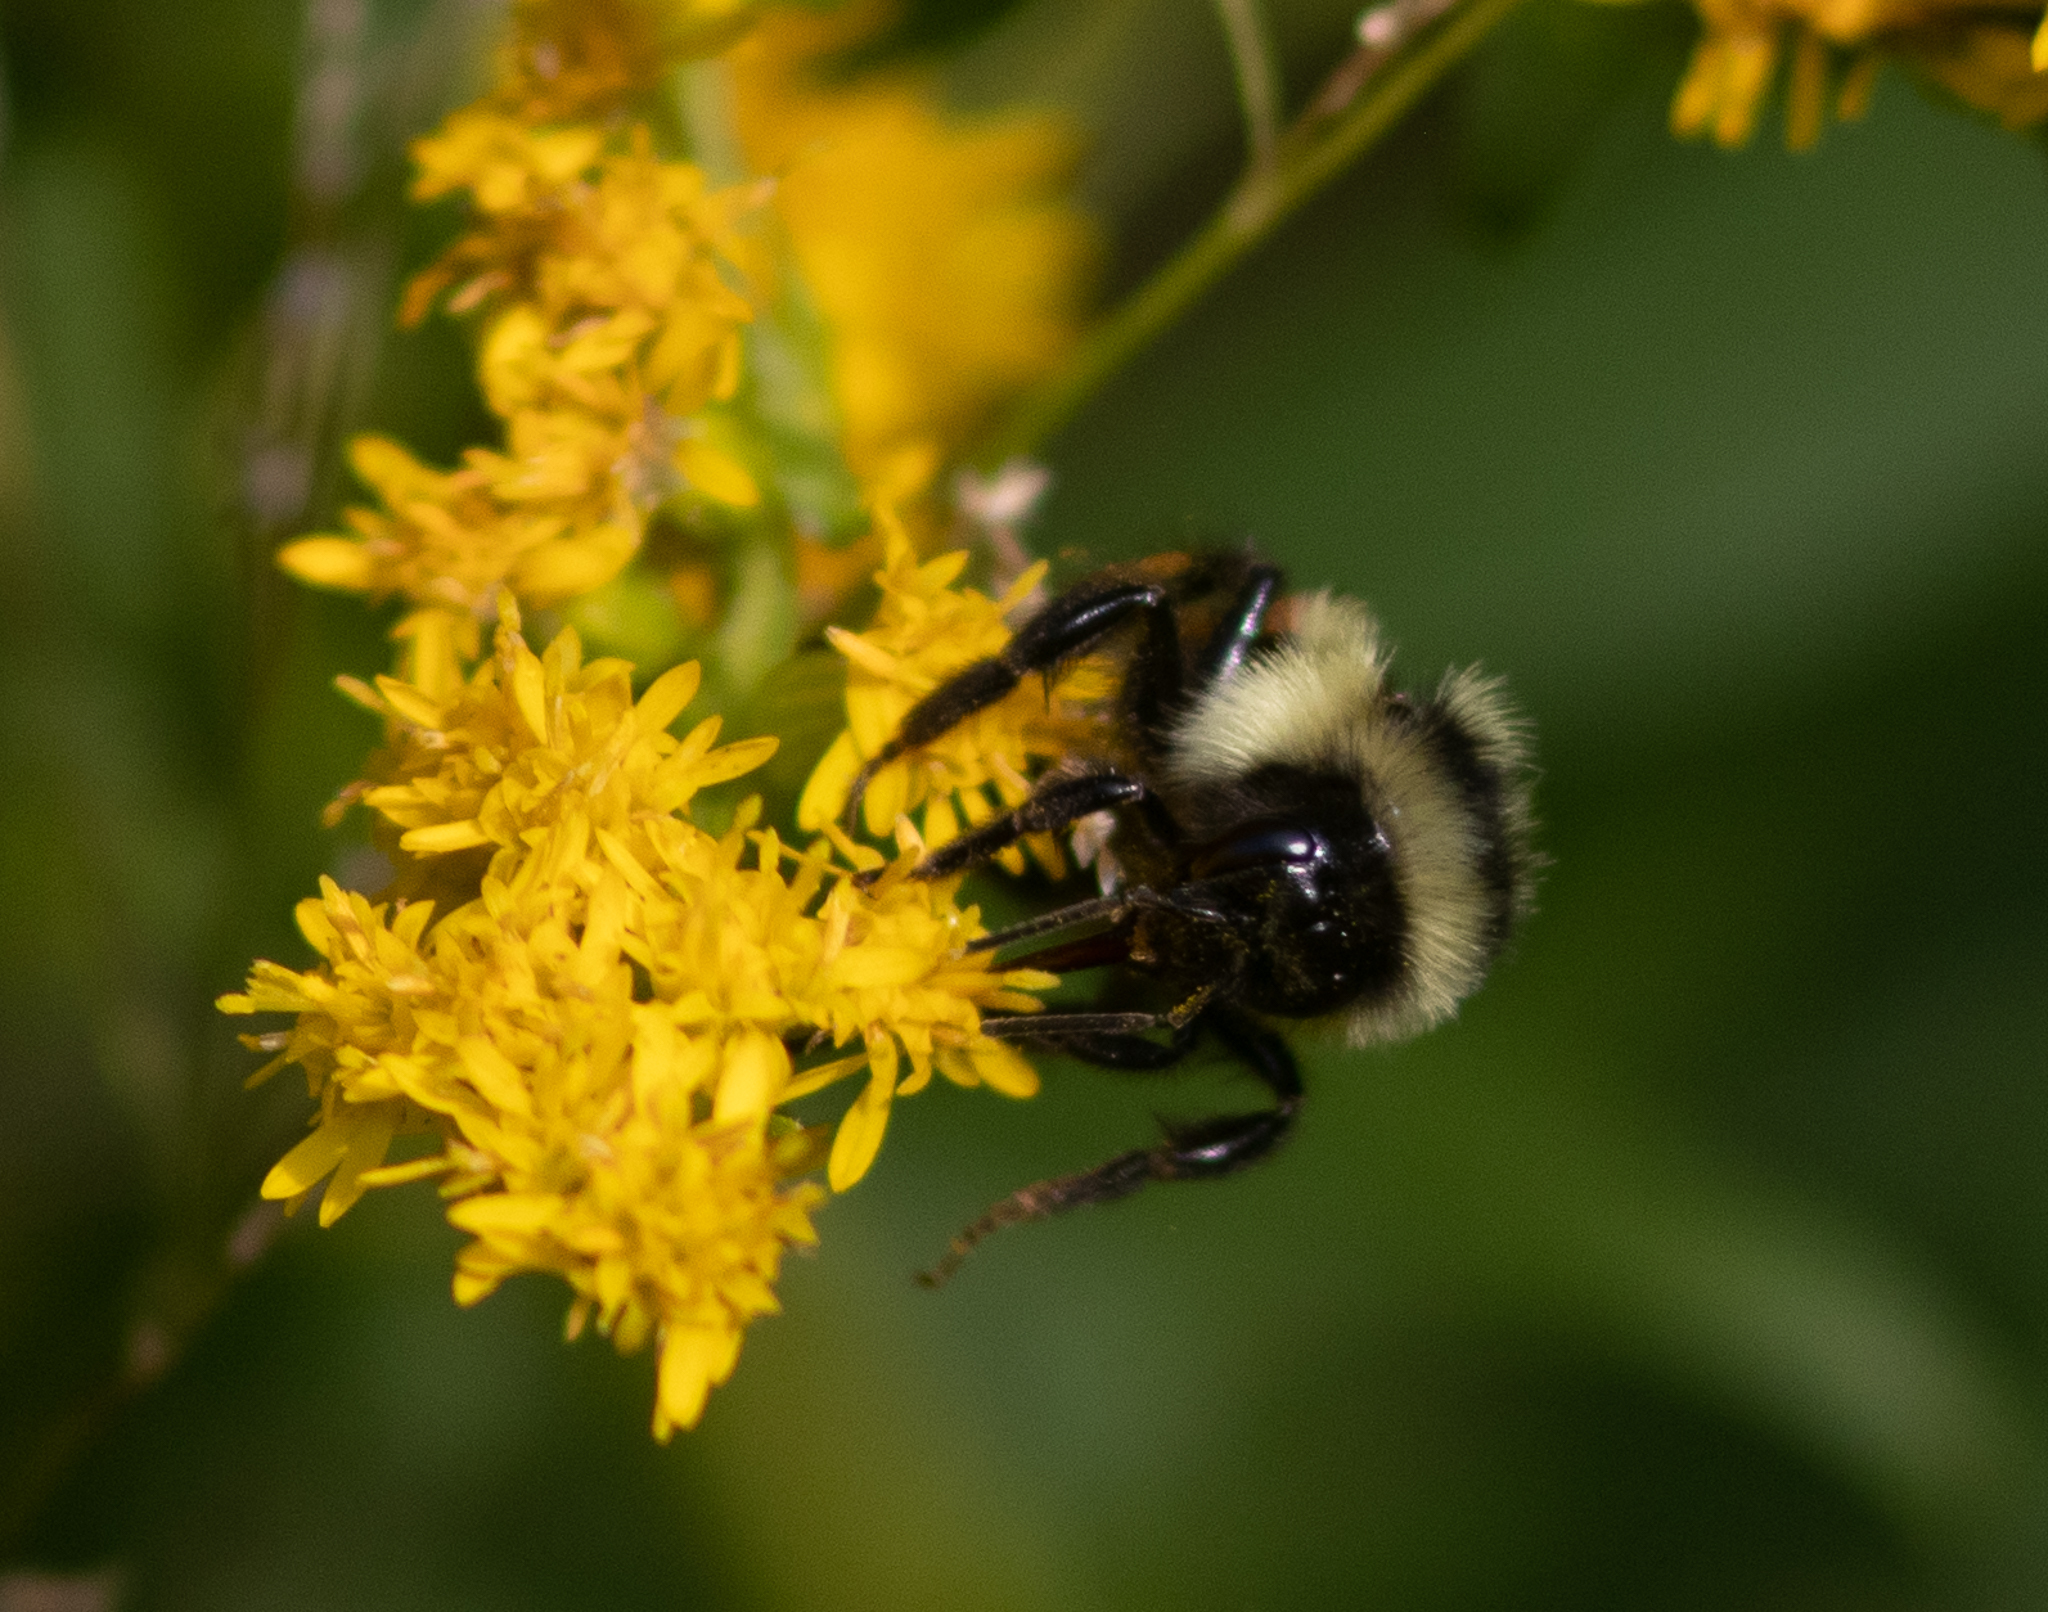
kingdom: Animalia
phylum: Arthropoda
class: Insecta
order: Hymenoptera
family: Apidae
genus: Bombus
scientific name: Bombus ternarius
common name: Tri-colored bumble bee
